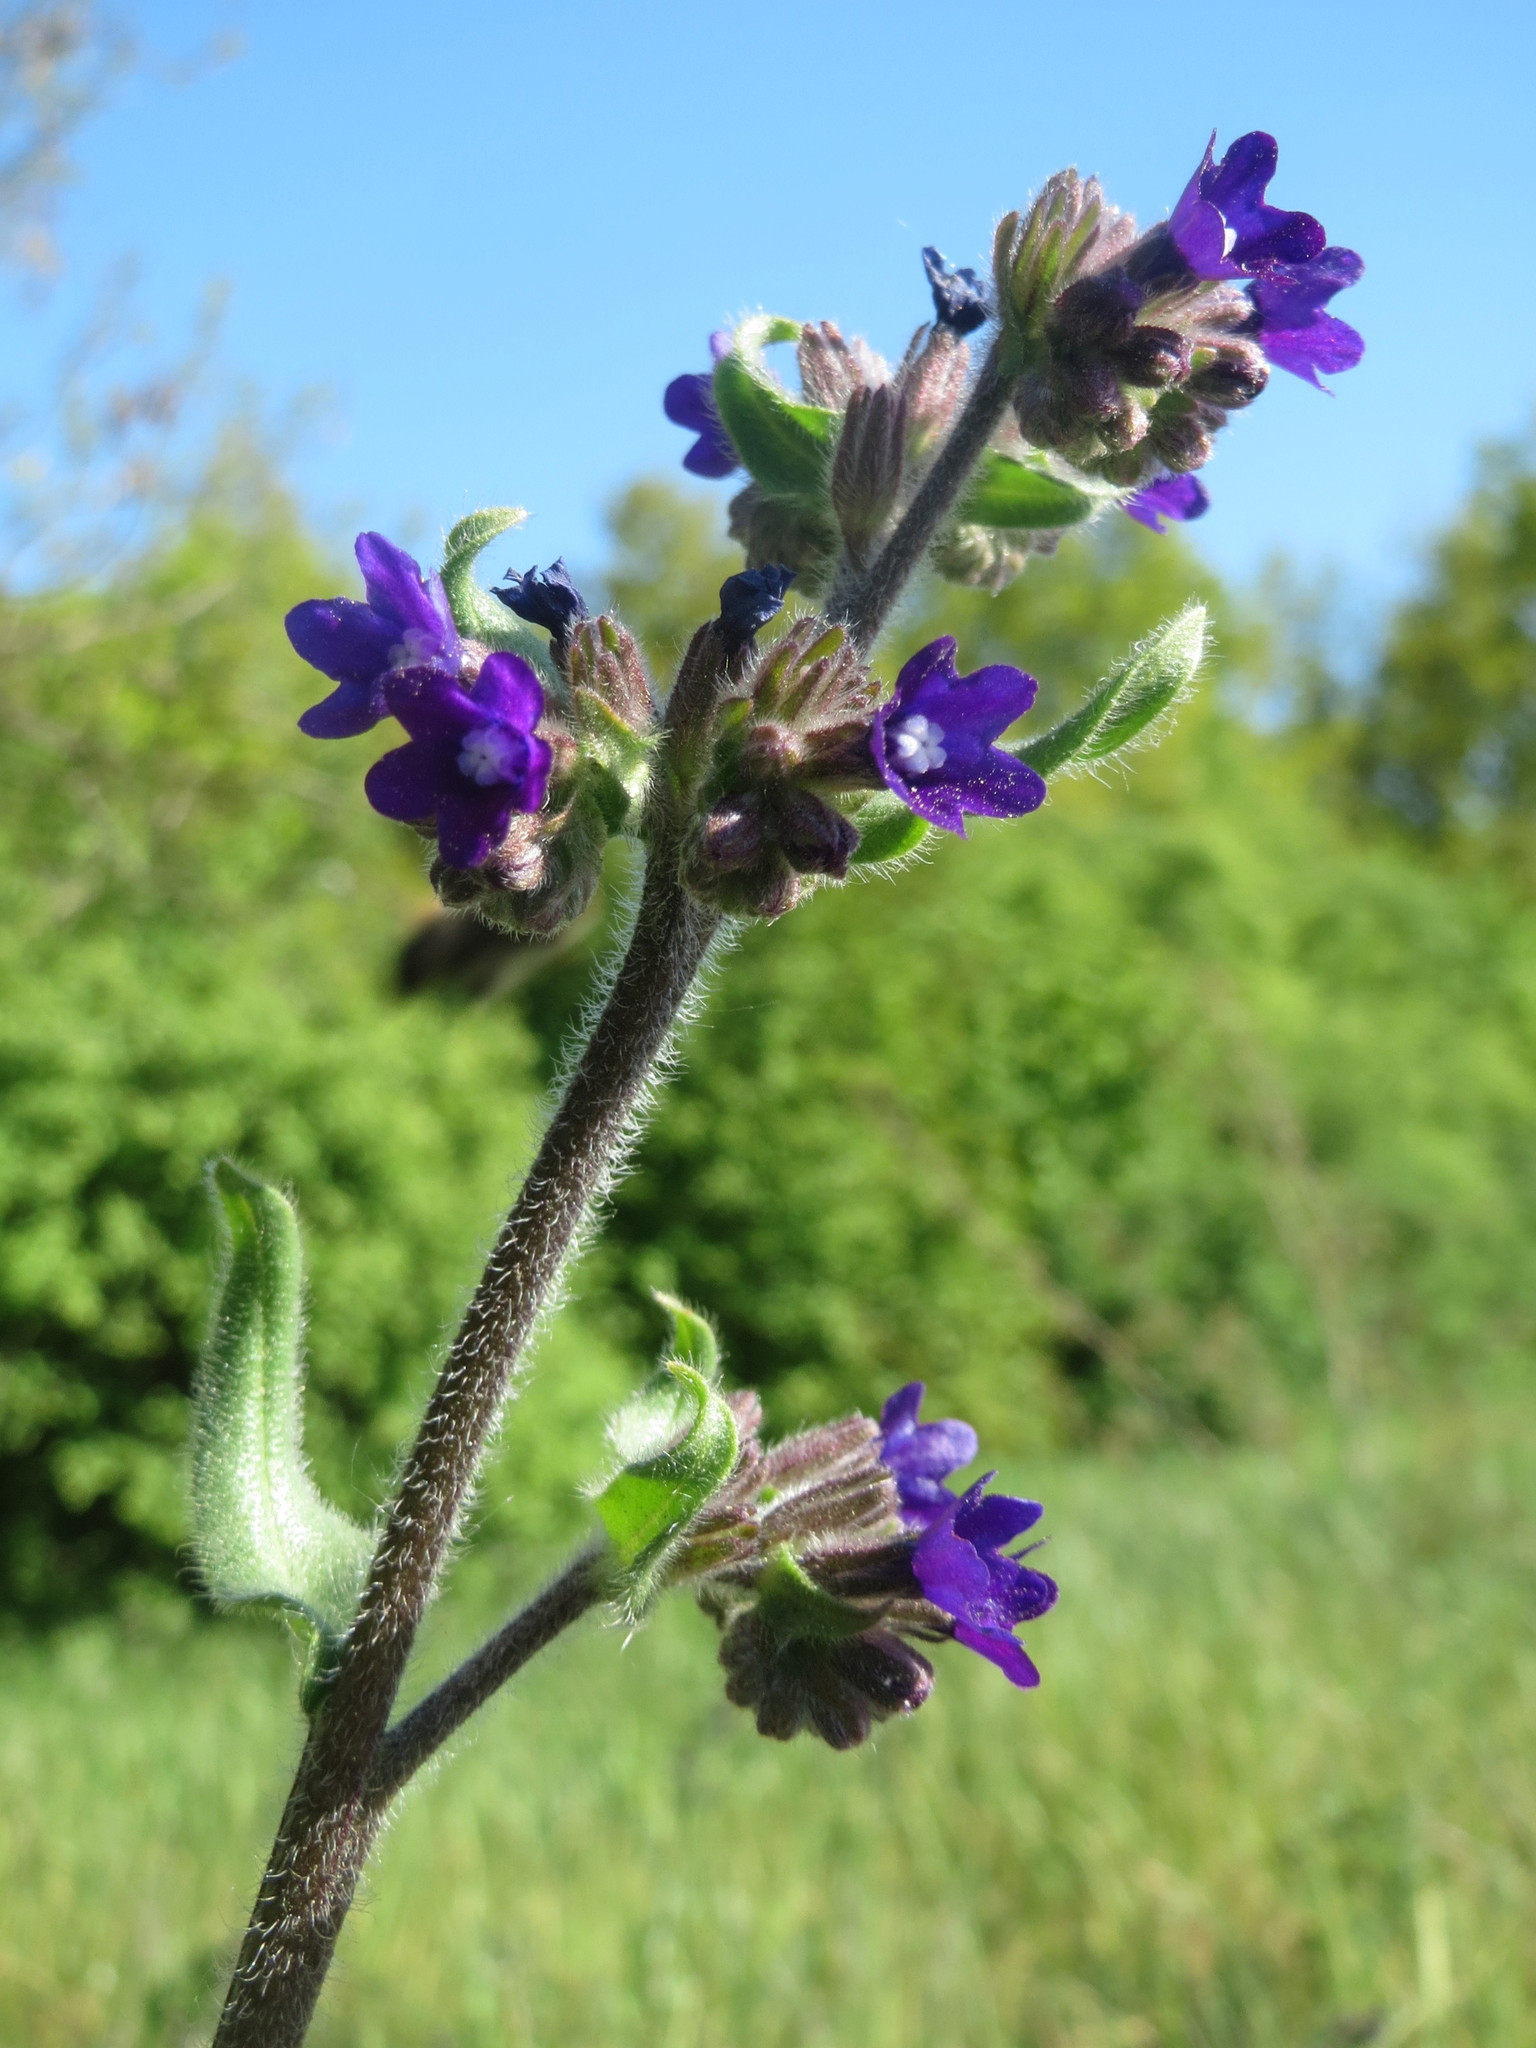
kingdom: Plantae
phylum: Tracheophyta
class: Magnoliopsida
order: Boraginales
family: Boraginaceae
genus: Anchusa
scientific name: Anchusa officinalis
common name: Alkanet
